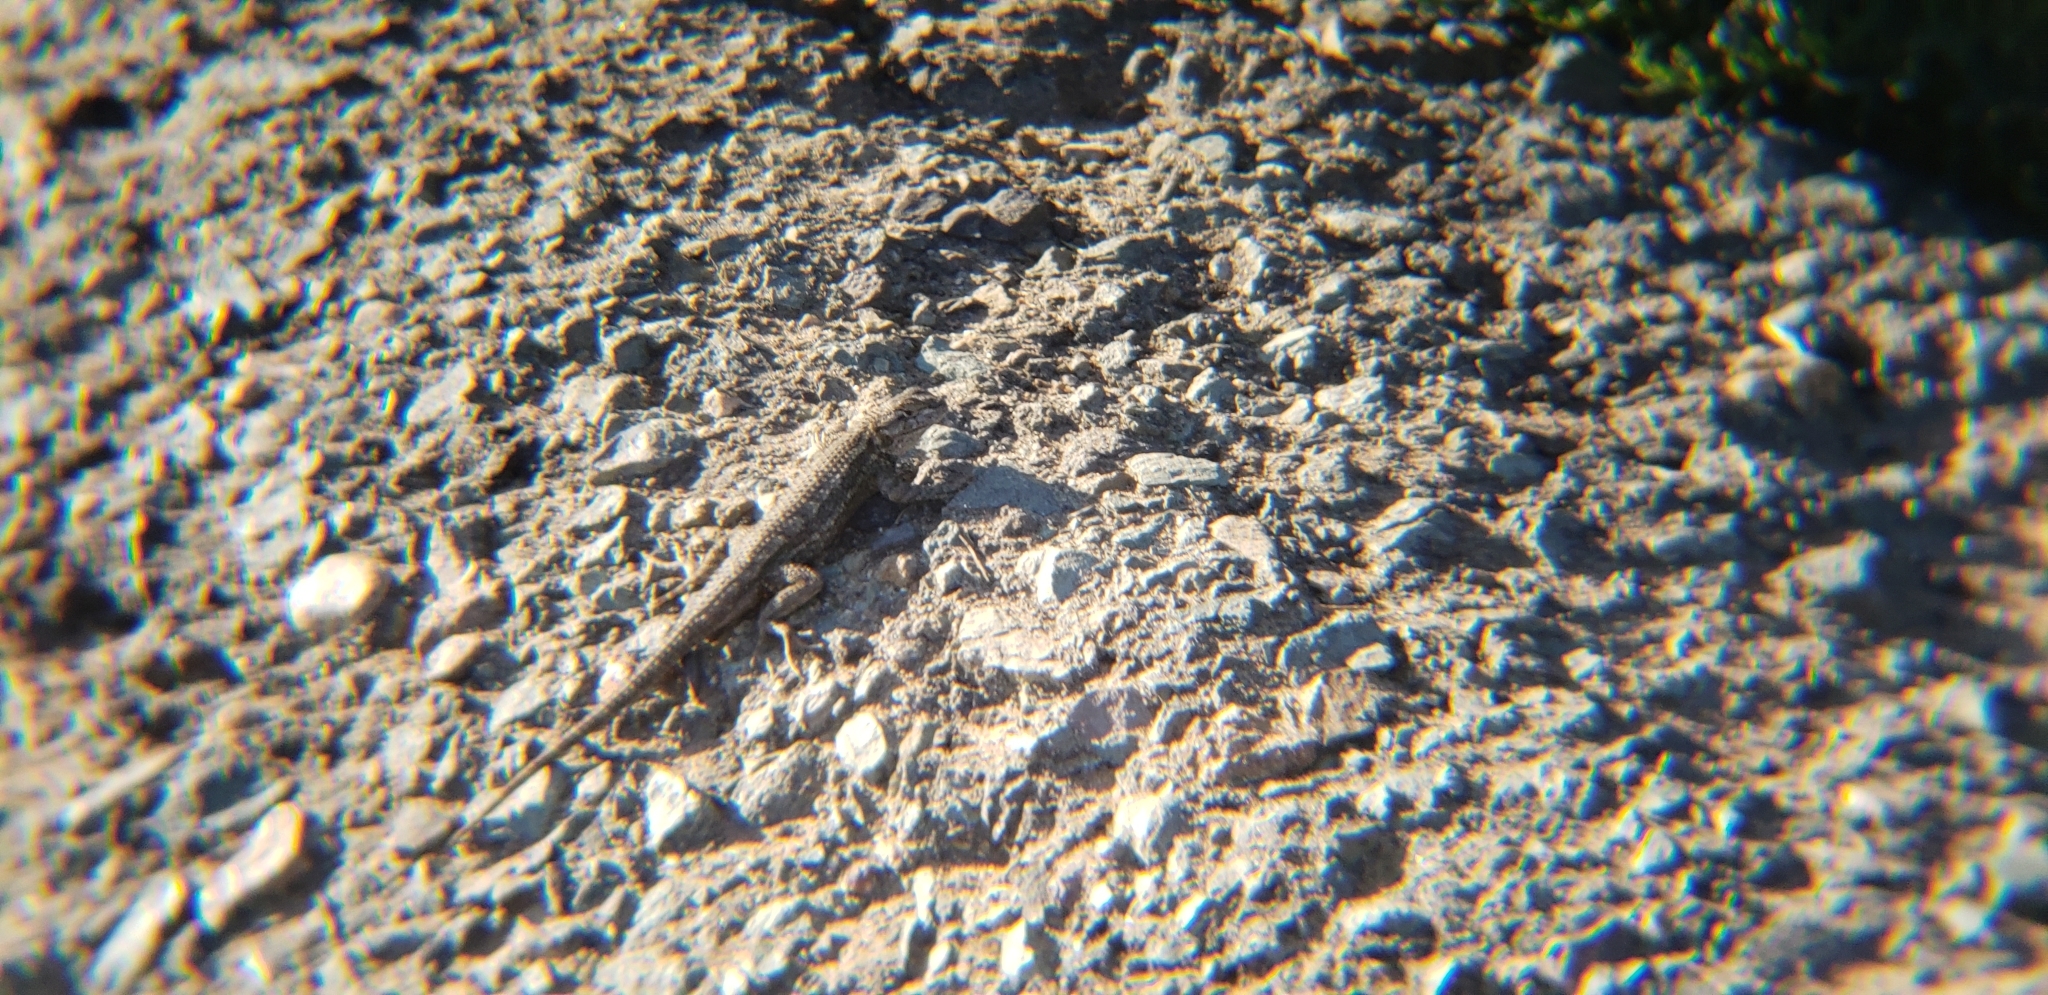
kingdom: Animalia
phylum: Chordata
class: Squamata
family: Phrynosomatidae
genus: Sceloporus
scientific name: Sceloporus occidentalis
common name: Western fence lizard
